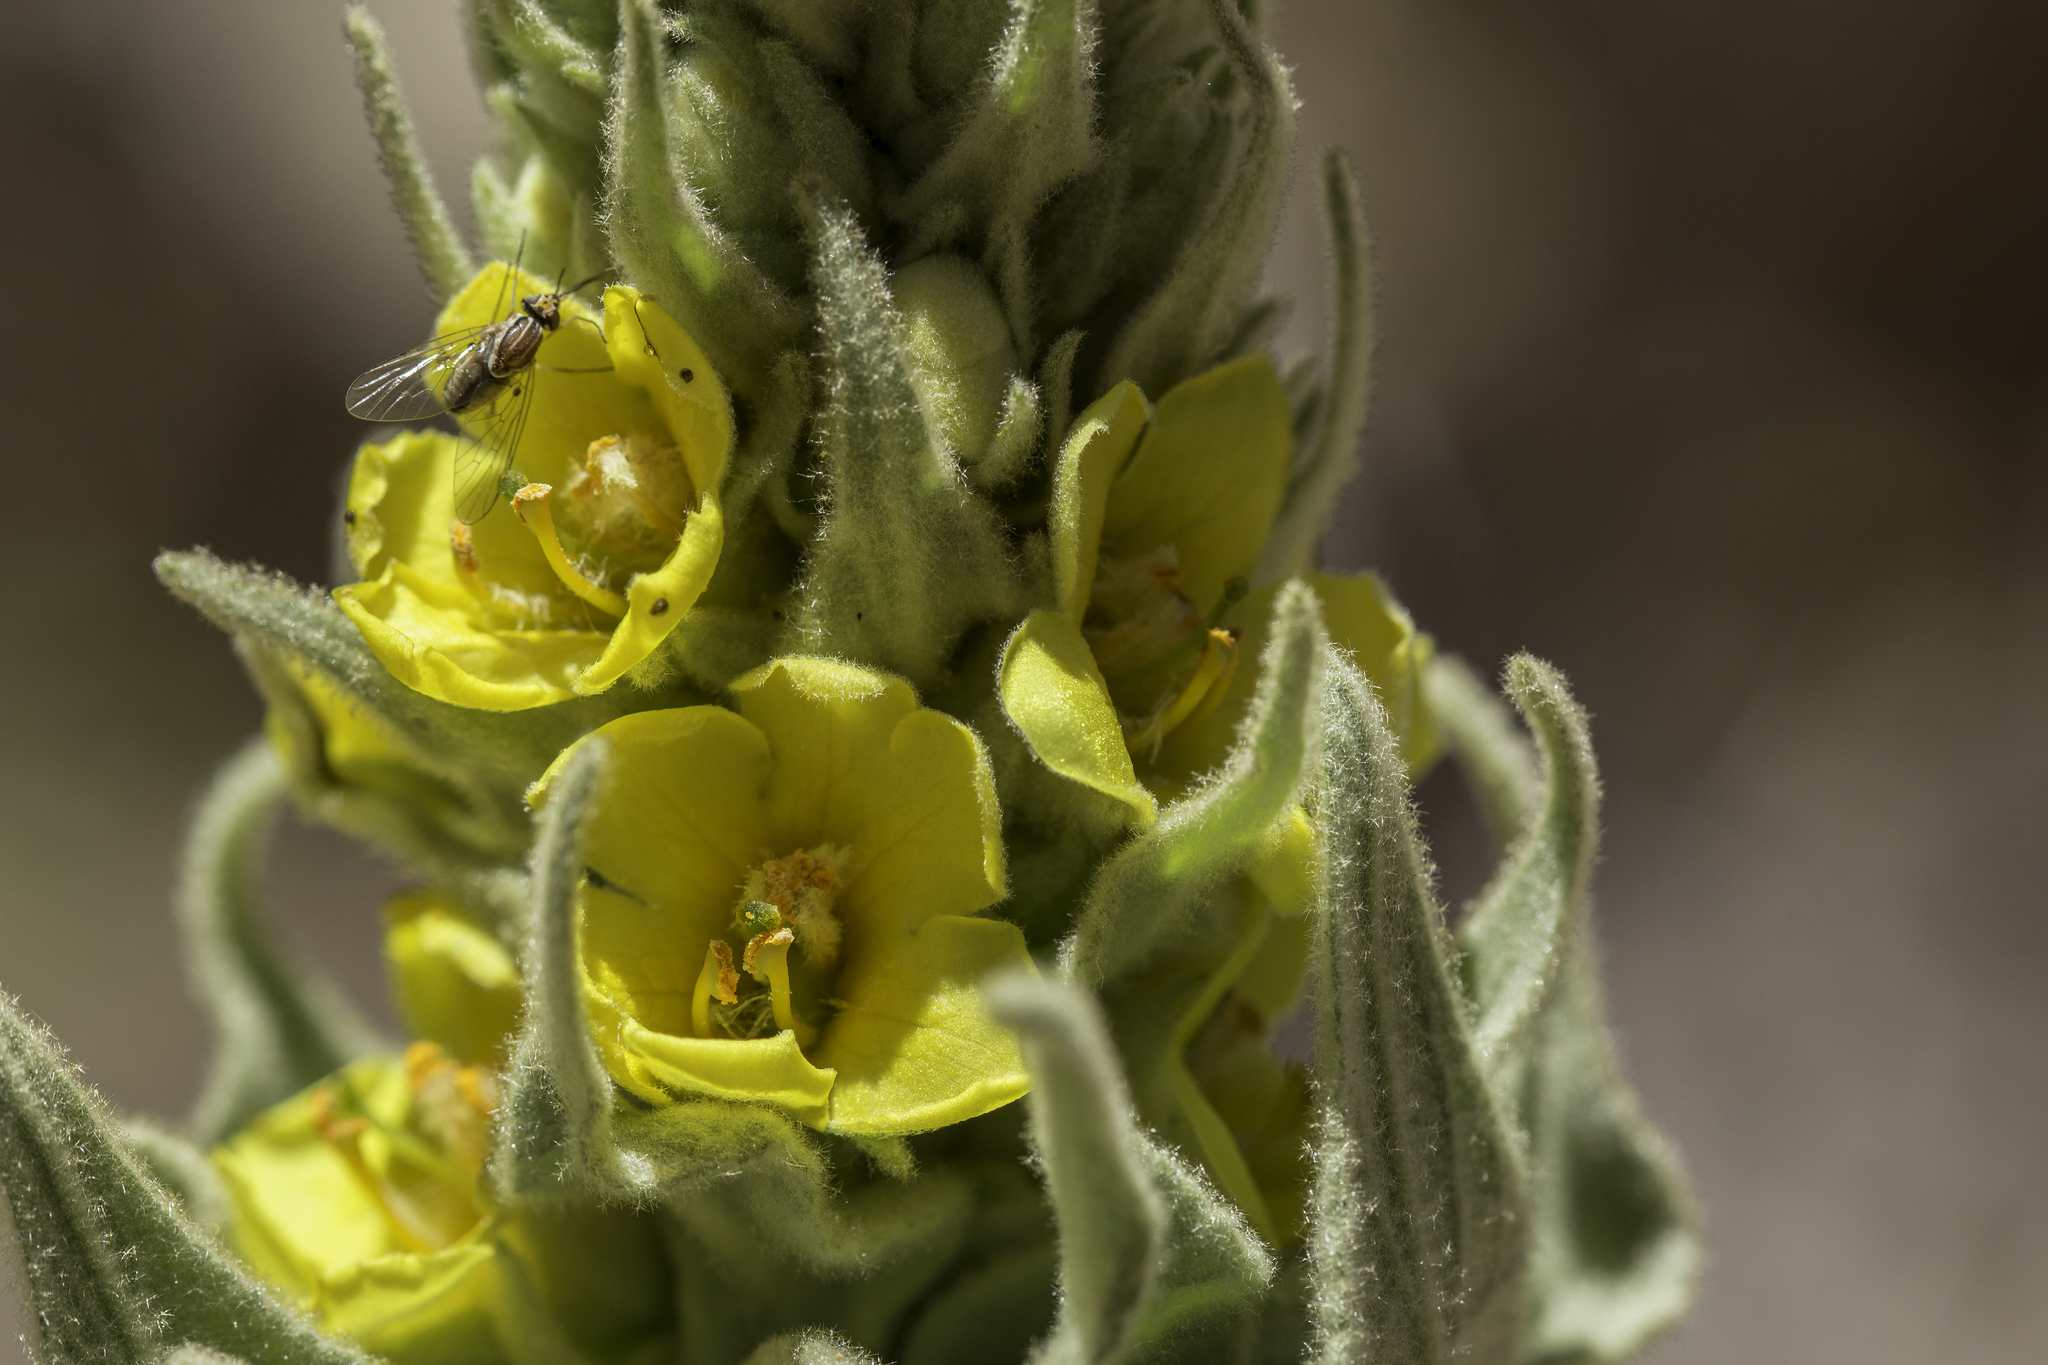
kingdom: Plantae
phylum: Tracheophyta
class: Magnoliopsida
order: Lamiales
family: Scrophulariaceae
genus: Verbascum
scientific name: Verbascum thapsus
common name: Common mullein
